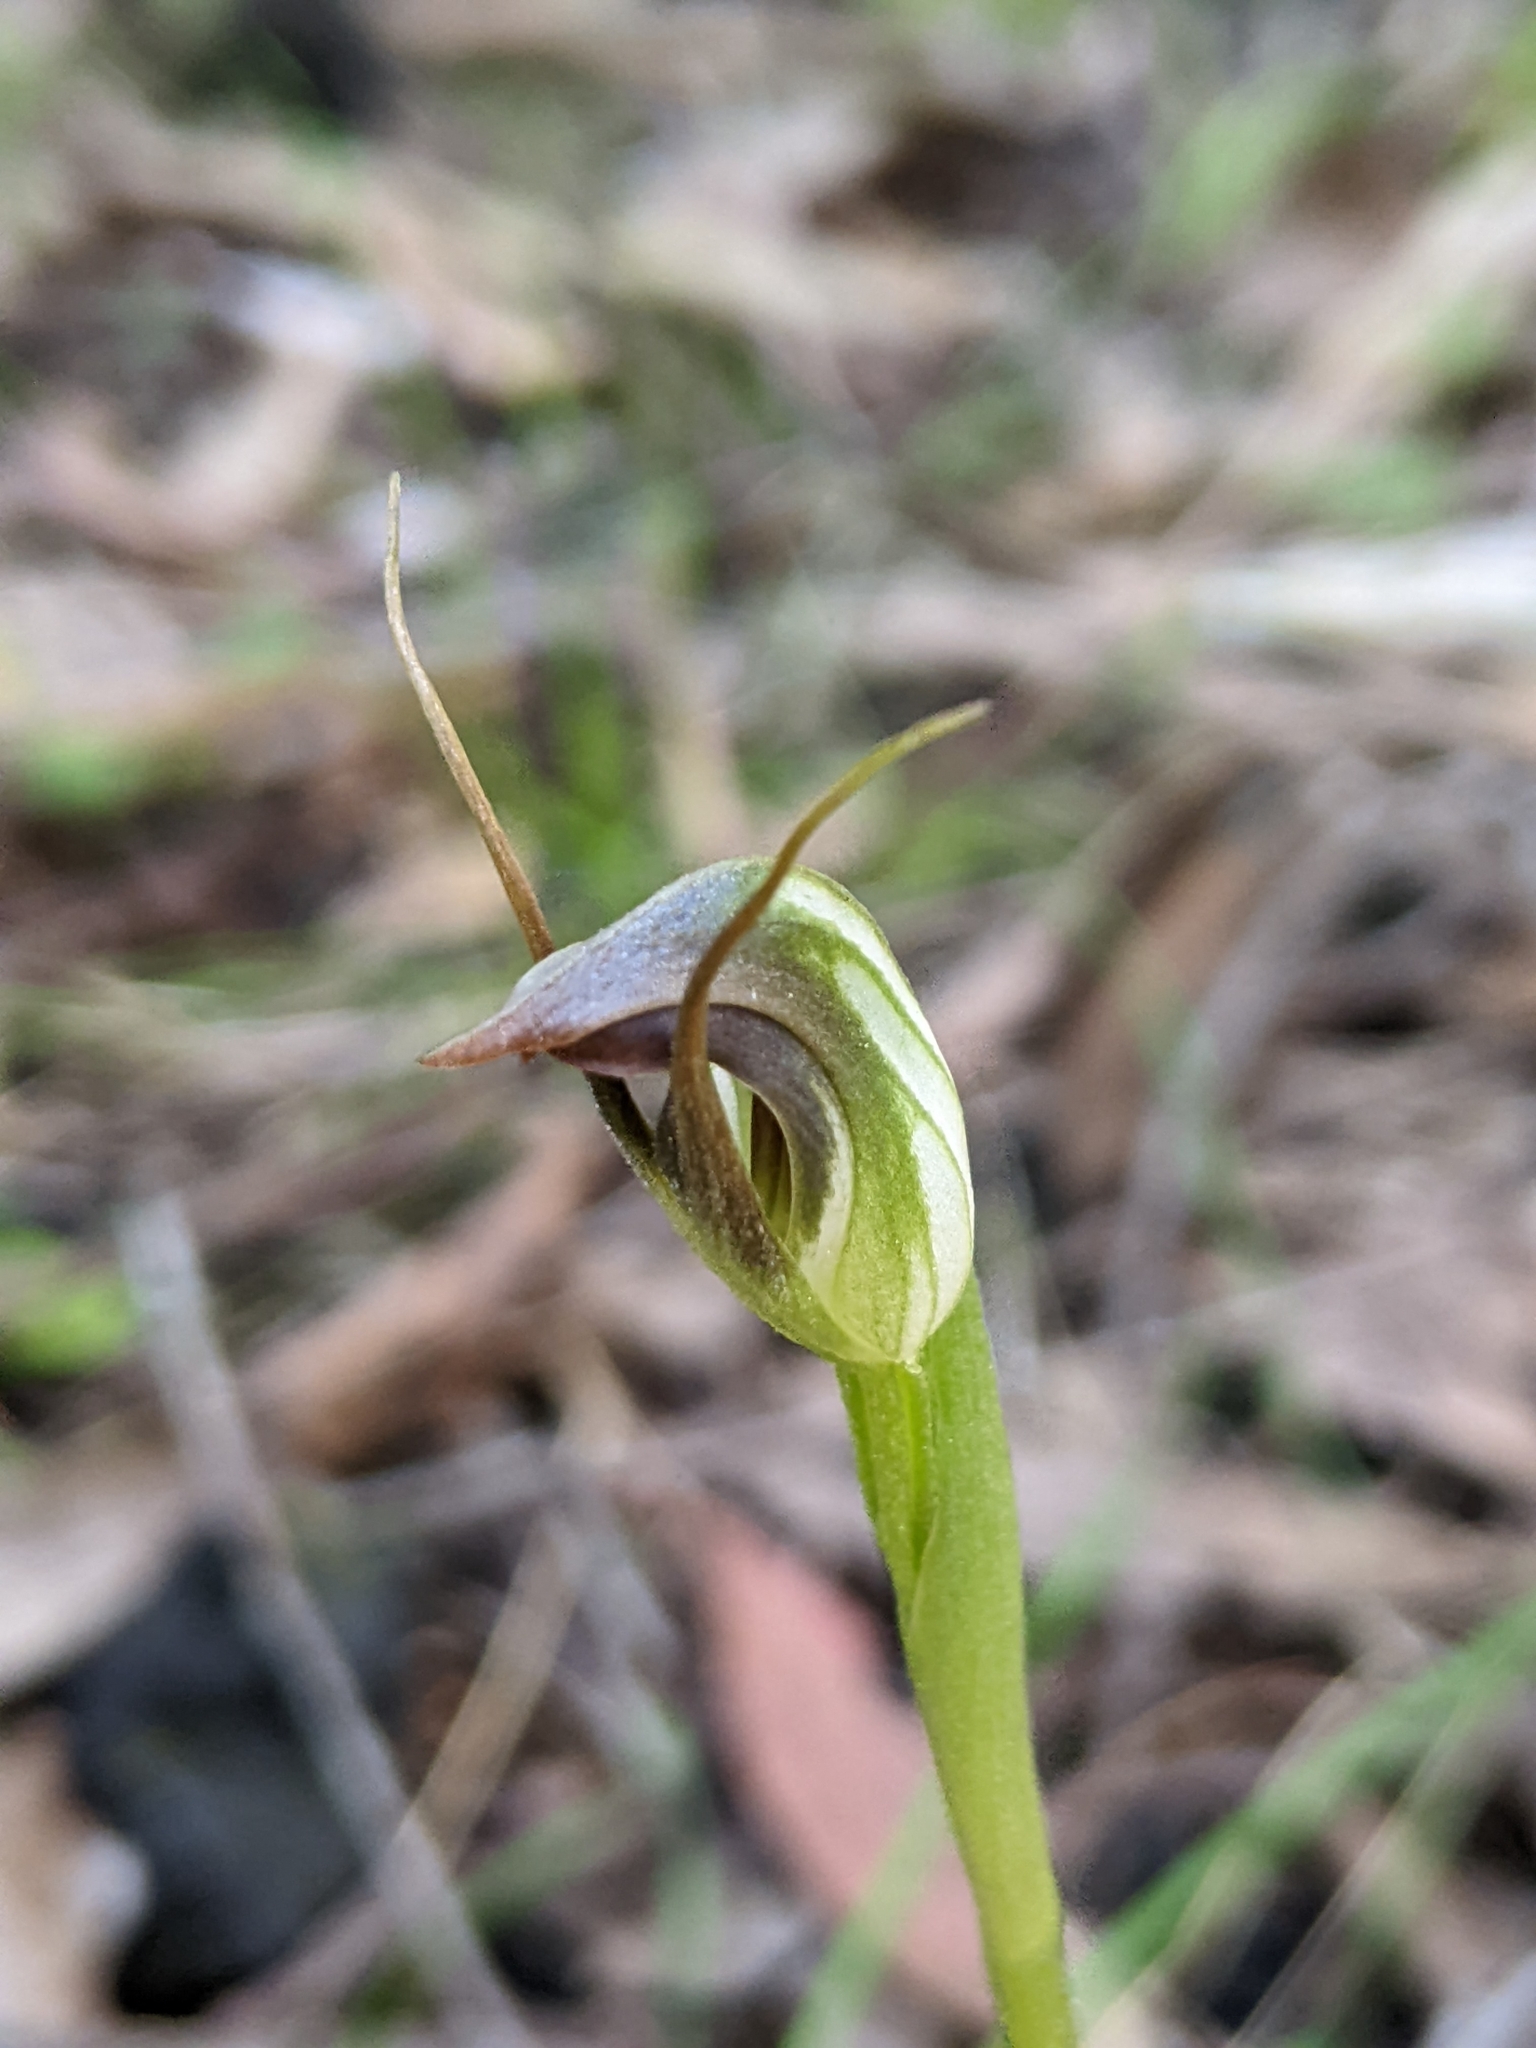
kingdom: Plantae
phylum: Tracheophyta
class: Liliopsida
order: Asparagales
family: Orchidaceae
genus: Pterostylis
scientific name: Pterostylis pedunculata
